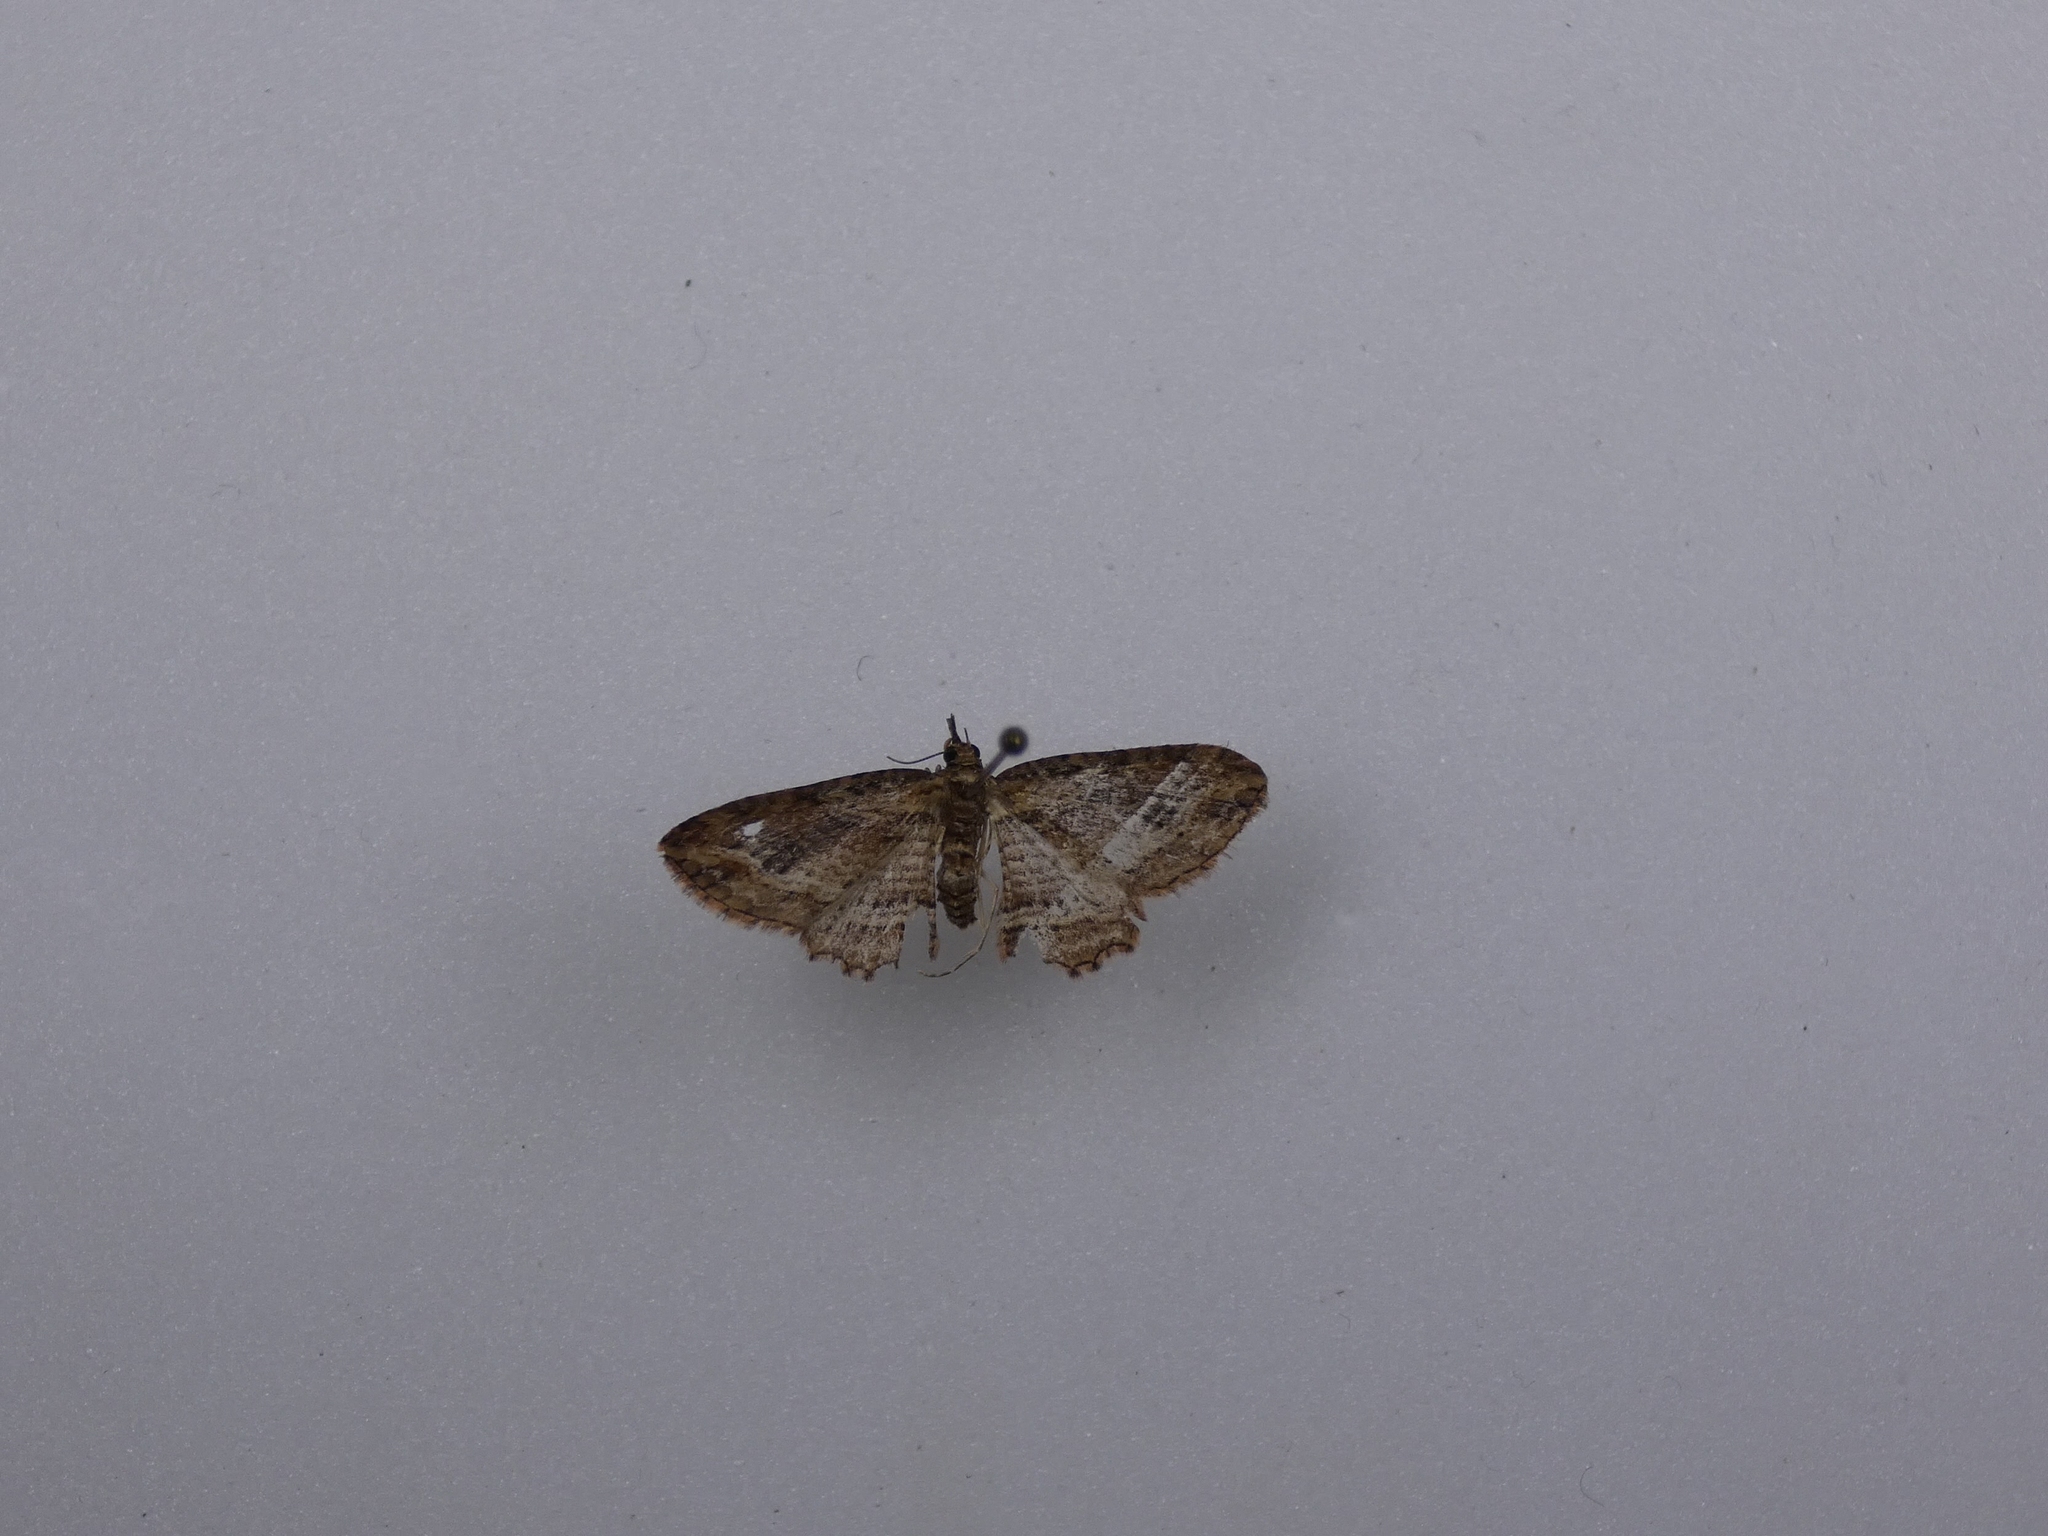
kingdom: Animalia
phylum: Arthropoda
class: Insecta
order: Lepidoptera
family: Geometridae
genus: Chloroclystis
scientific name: Chloroclystis filata
